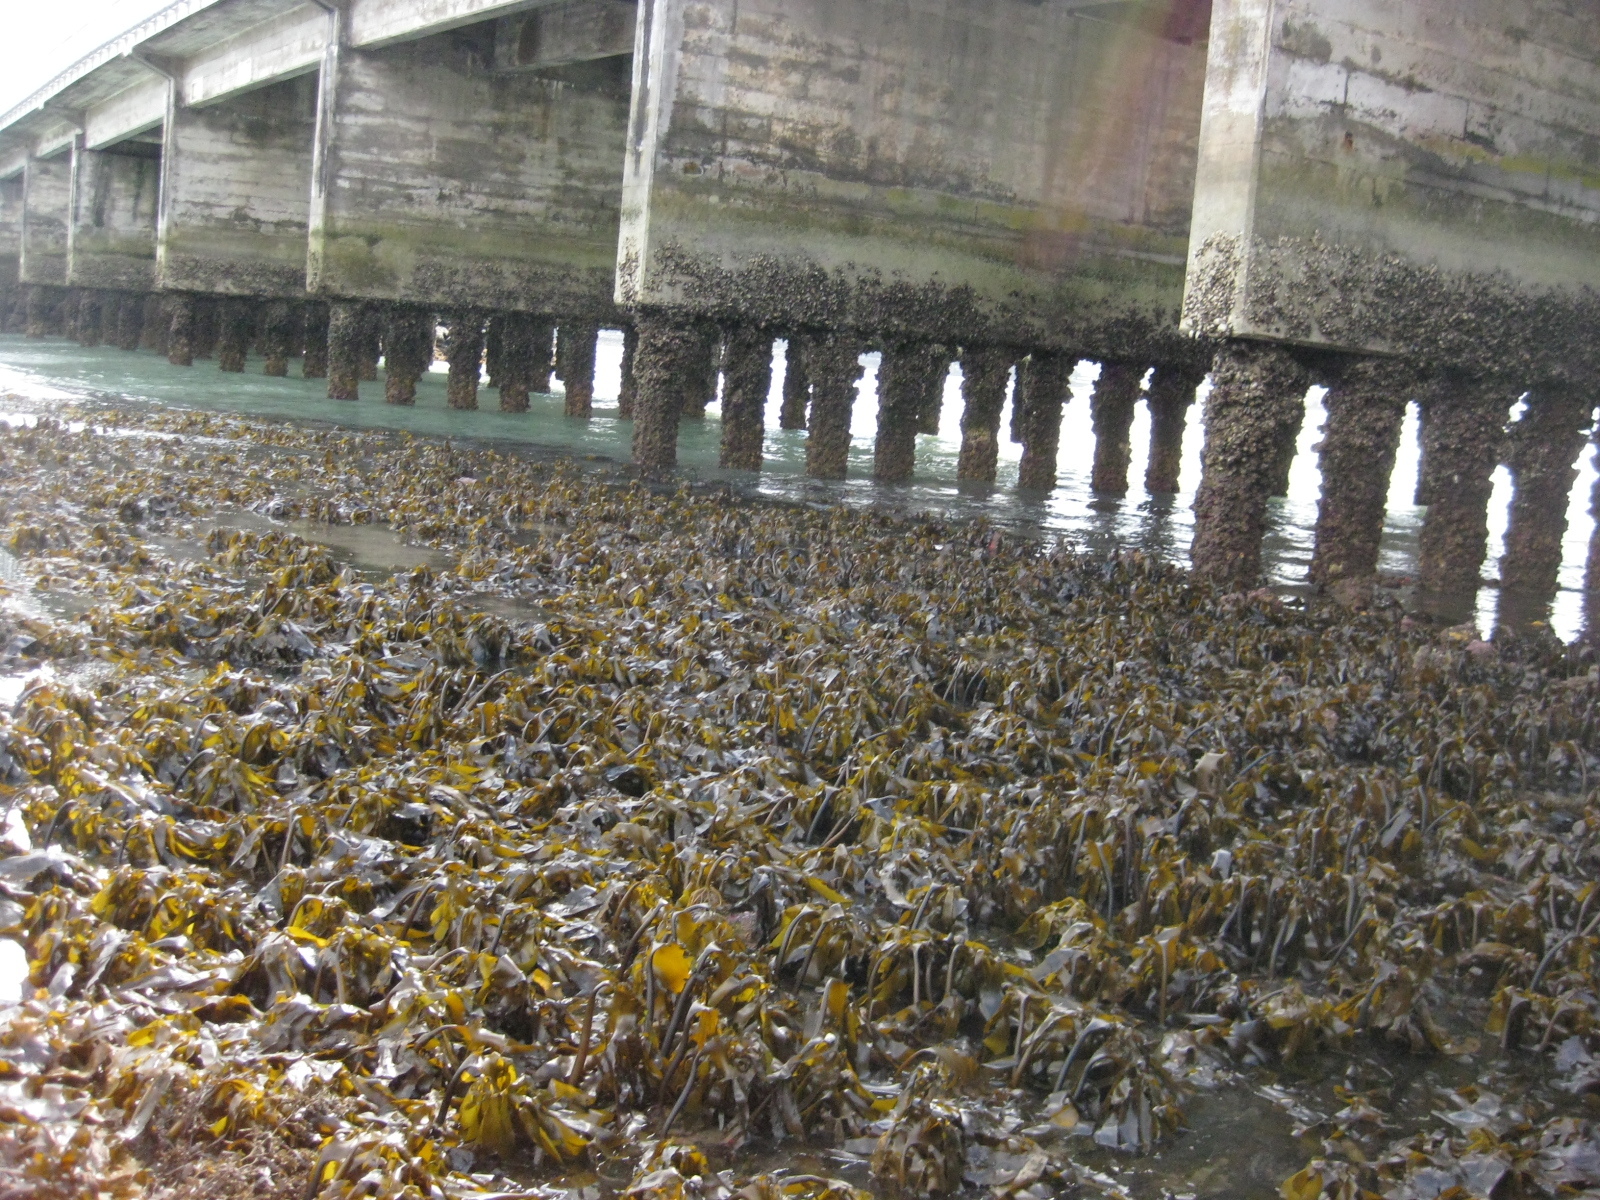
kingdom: Chromista
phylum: Ochrophyta
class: Phaeophyceae
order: Laminariales
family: Lessoniaceae
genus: Ecklonia
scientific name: Ecklonia radiata
